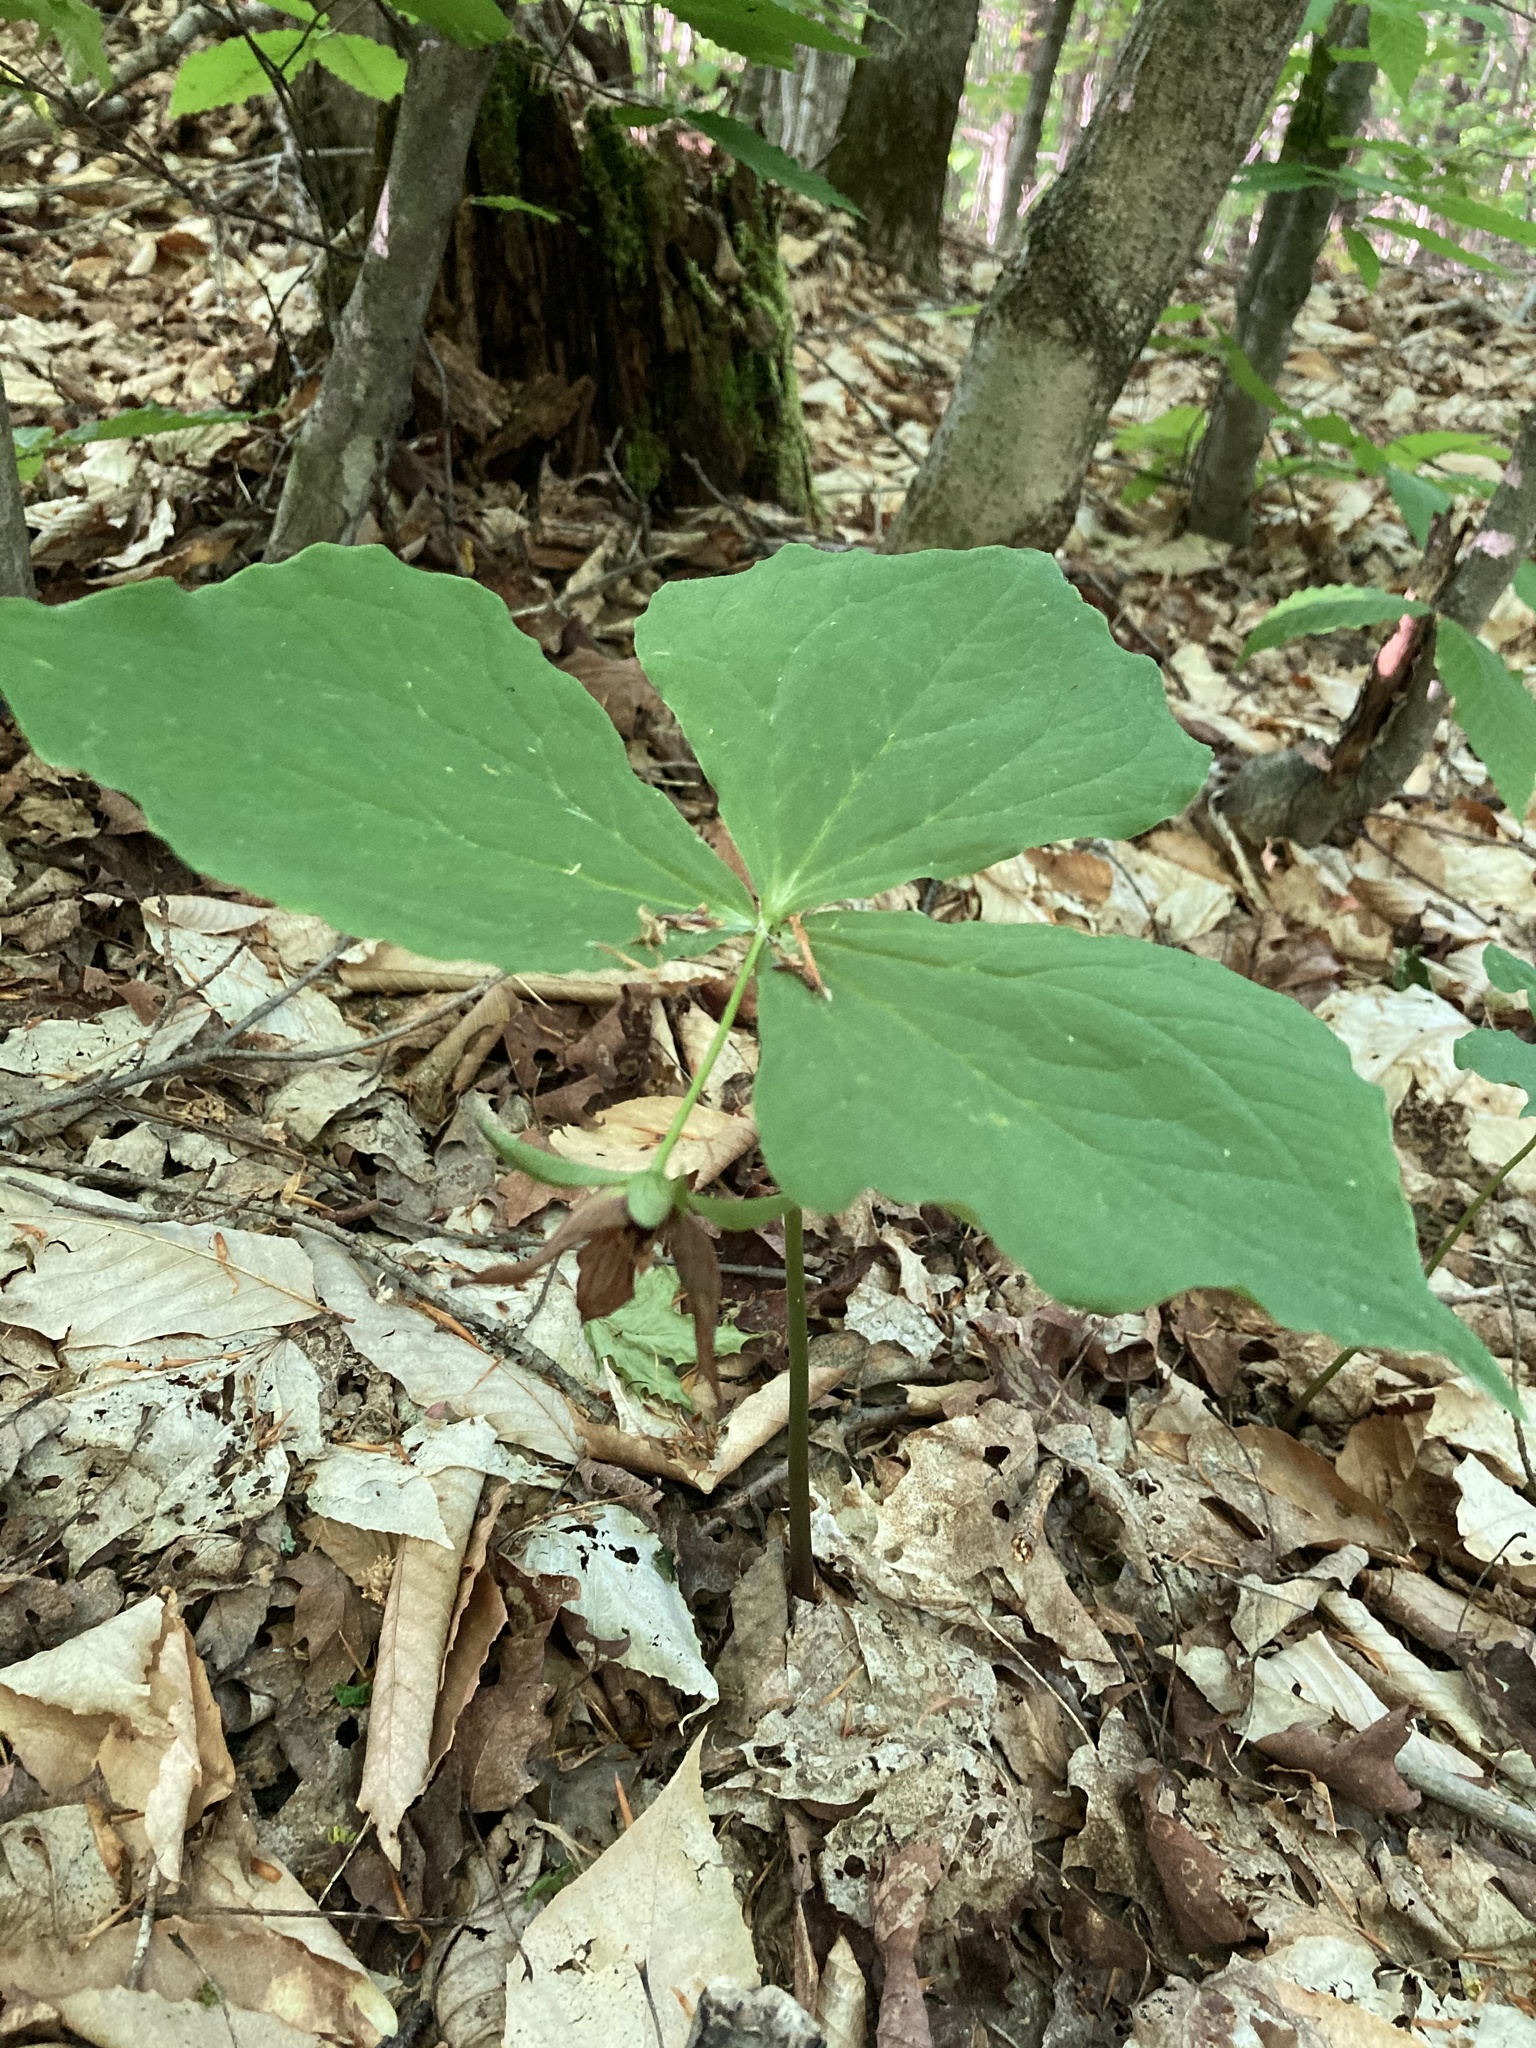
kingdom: Plantae
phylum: Tracheophyta
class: Liliopsida
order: Liliales
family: Melanthiaceae
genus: Trillium
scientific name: Trillium erectum
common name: Purple trillium
